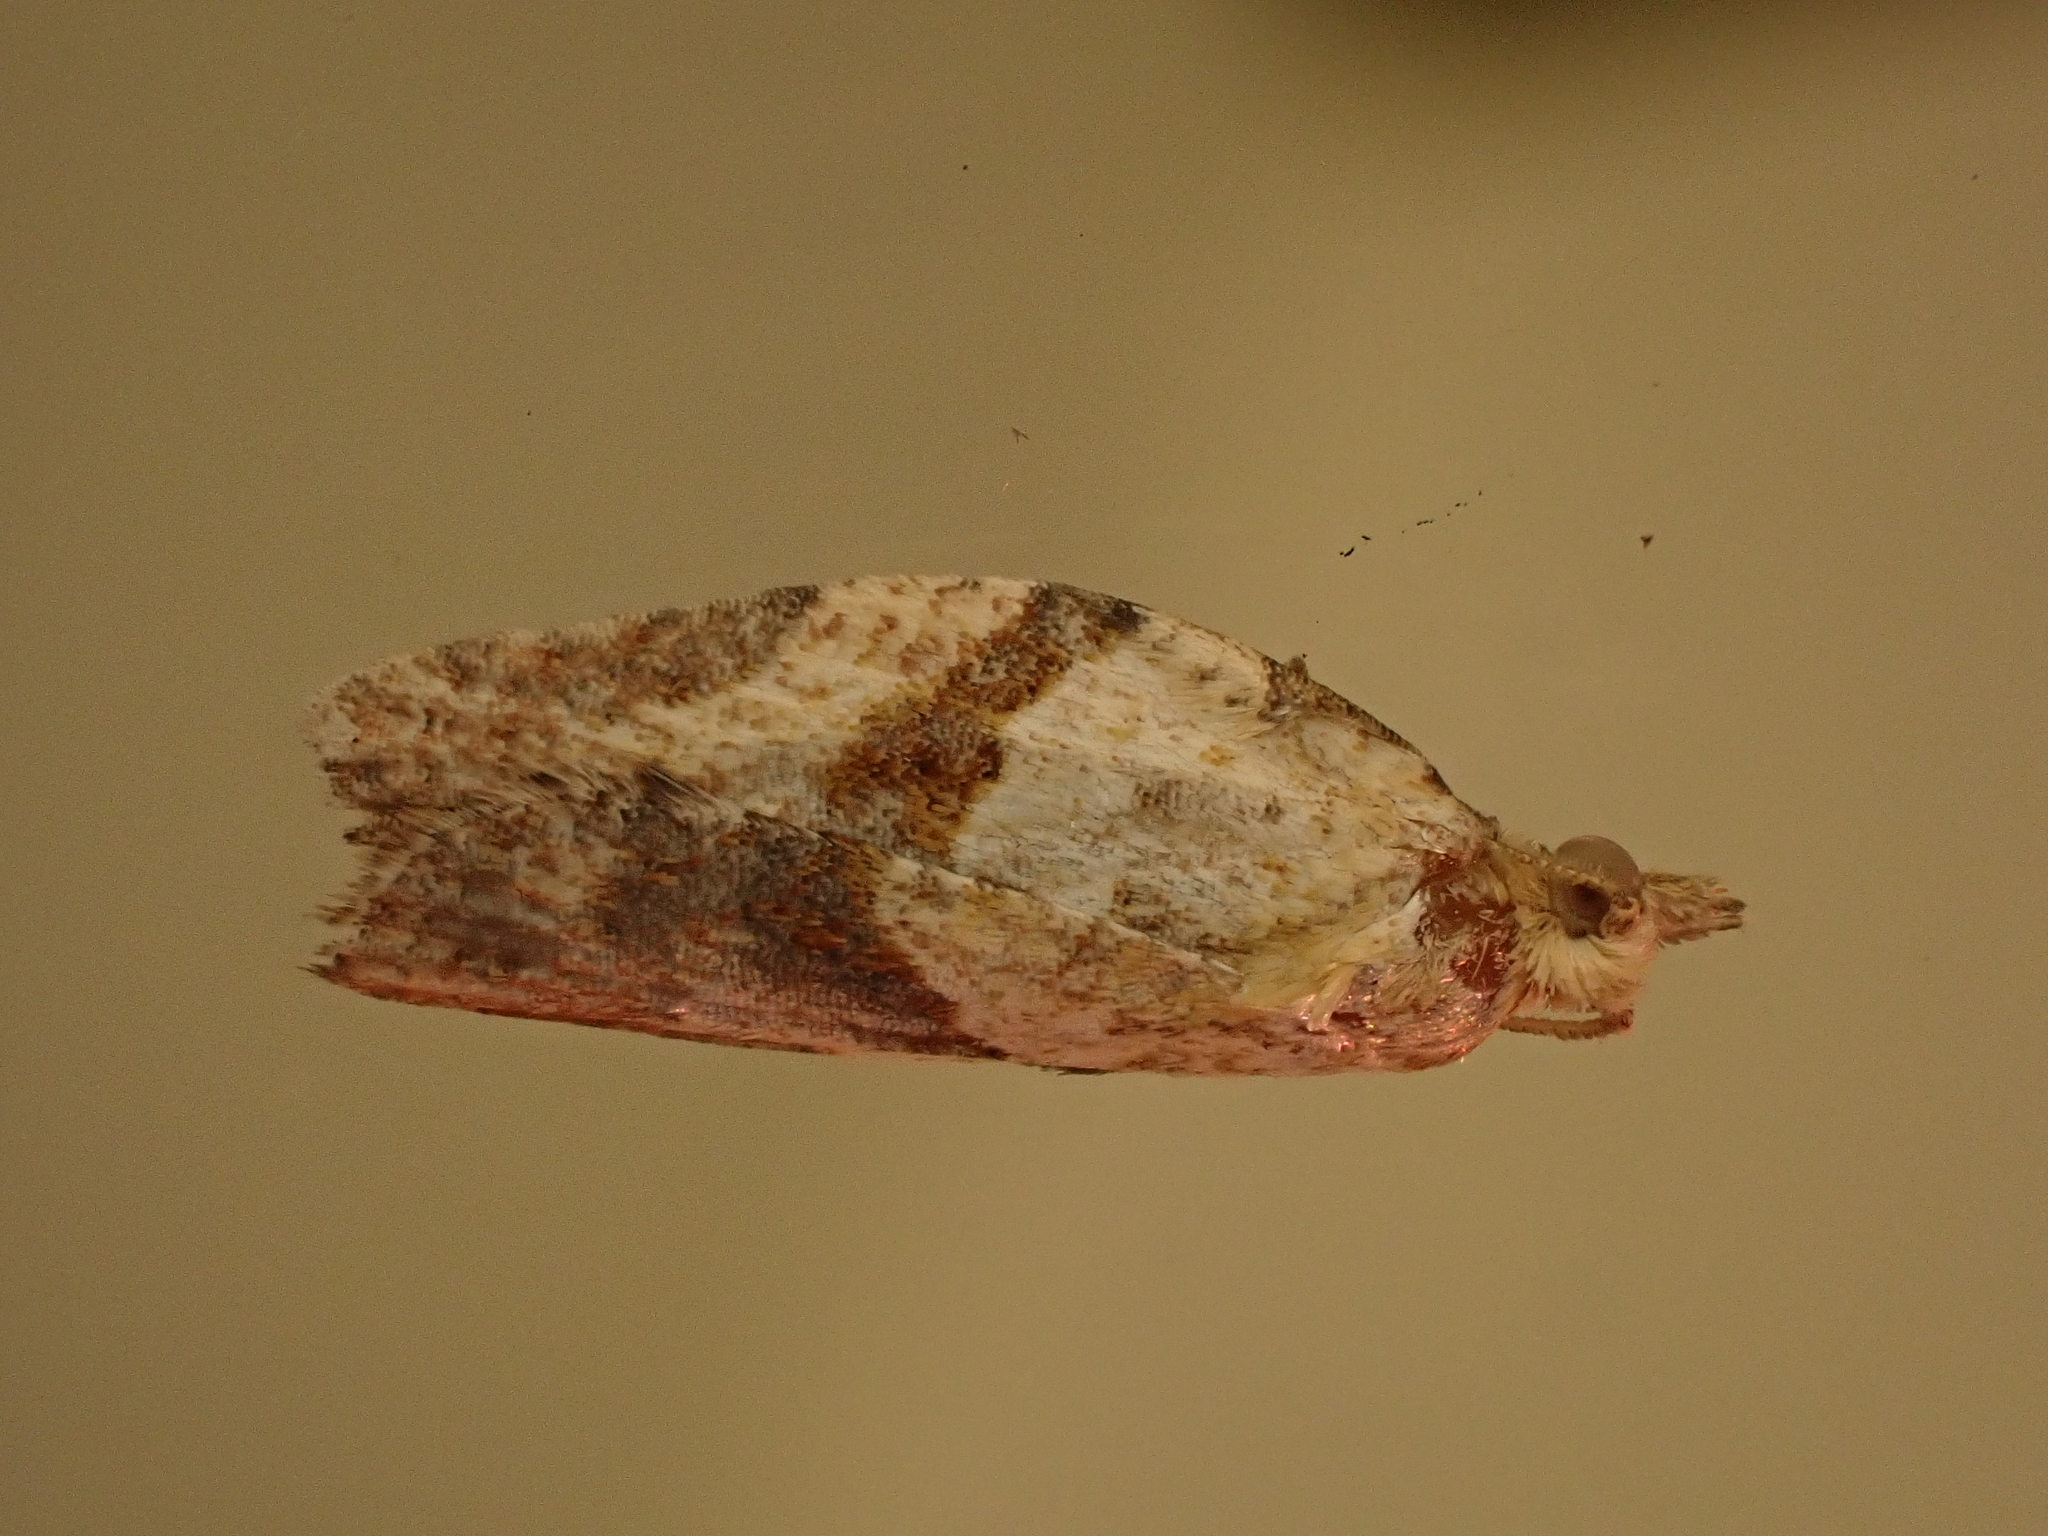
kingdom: Animalia
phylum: Arthropoda
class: Insecta
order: Lepidoptera
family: Tortricidae
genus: Epiphyas
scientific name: Epiphyas postvittana
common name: Light brown apple moth
